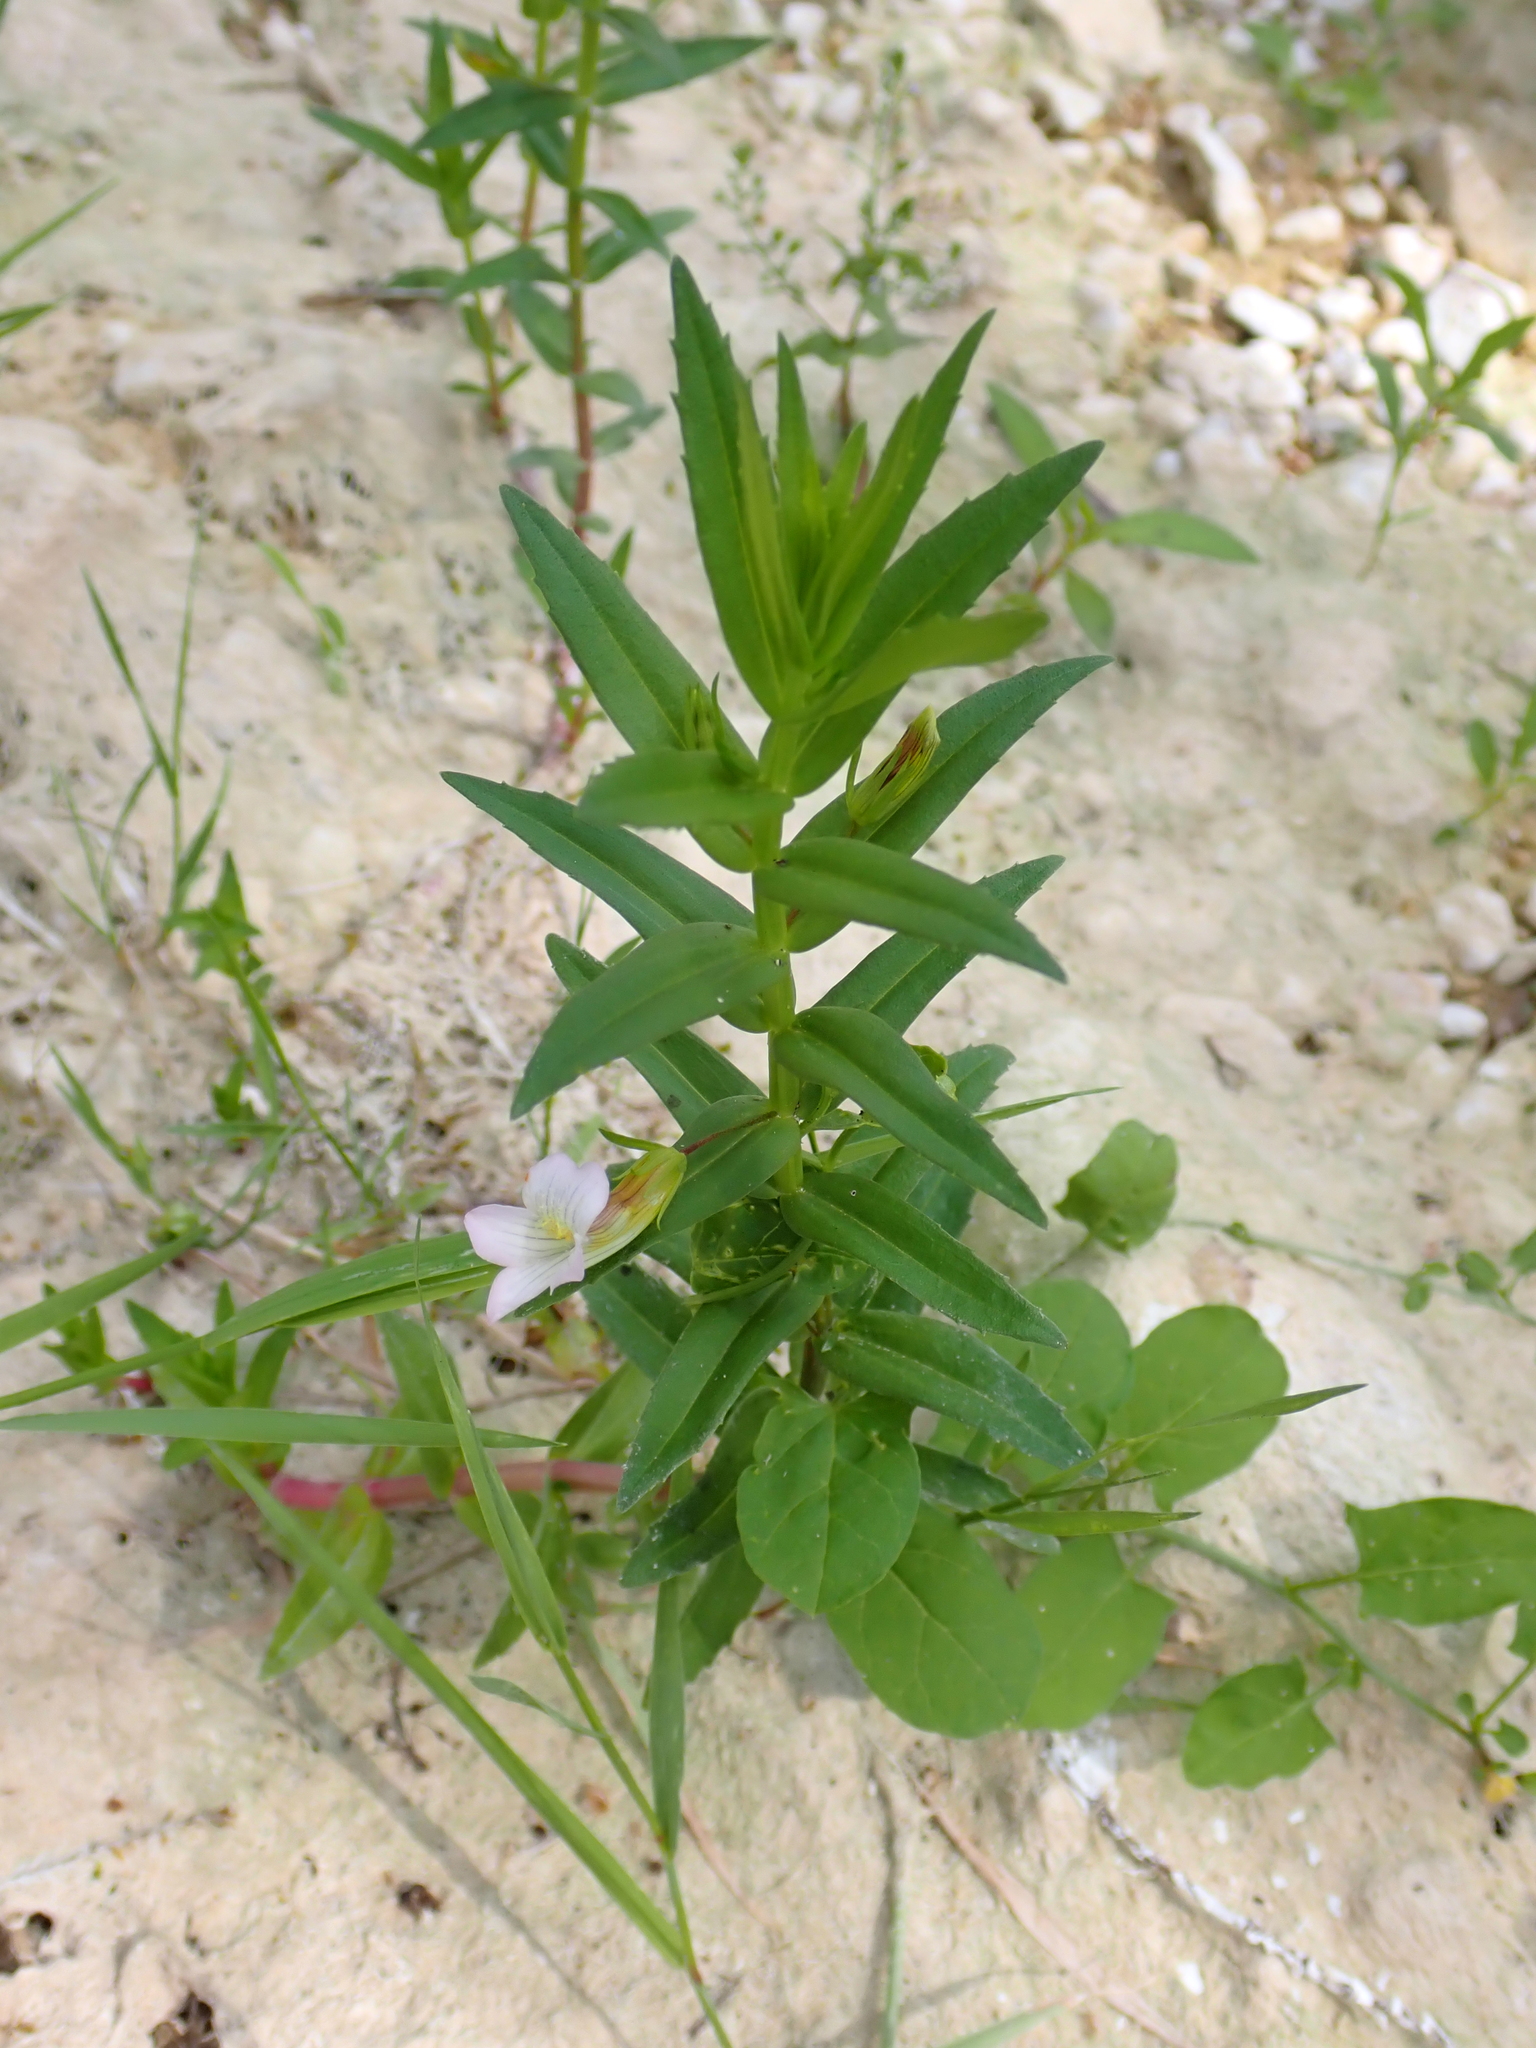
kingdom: Plantae
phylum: Tracheophyta
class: Magnoliopsida
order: Lamiales
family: Plantaginaceae
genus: Gratiola
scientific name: Gratiola officinalis
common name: Gratiola
